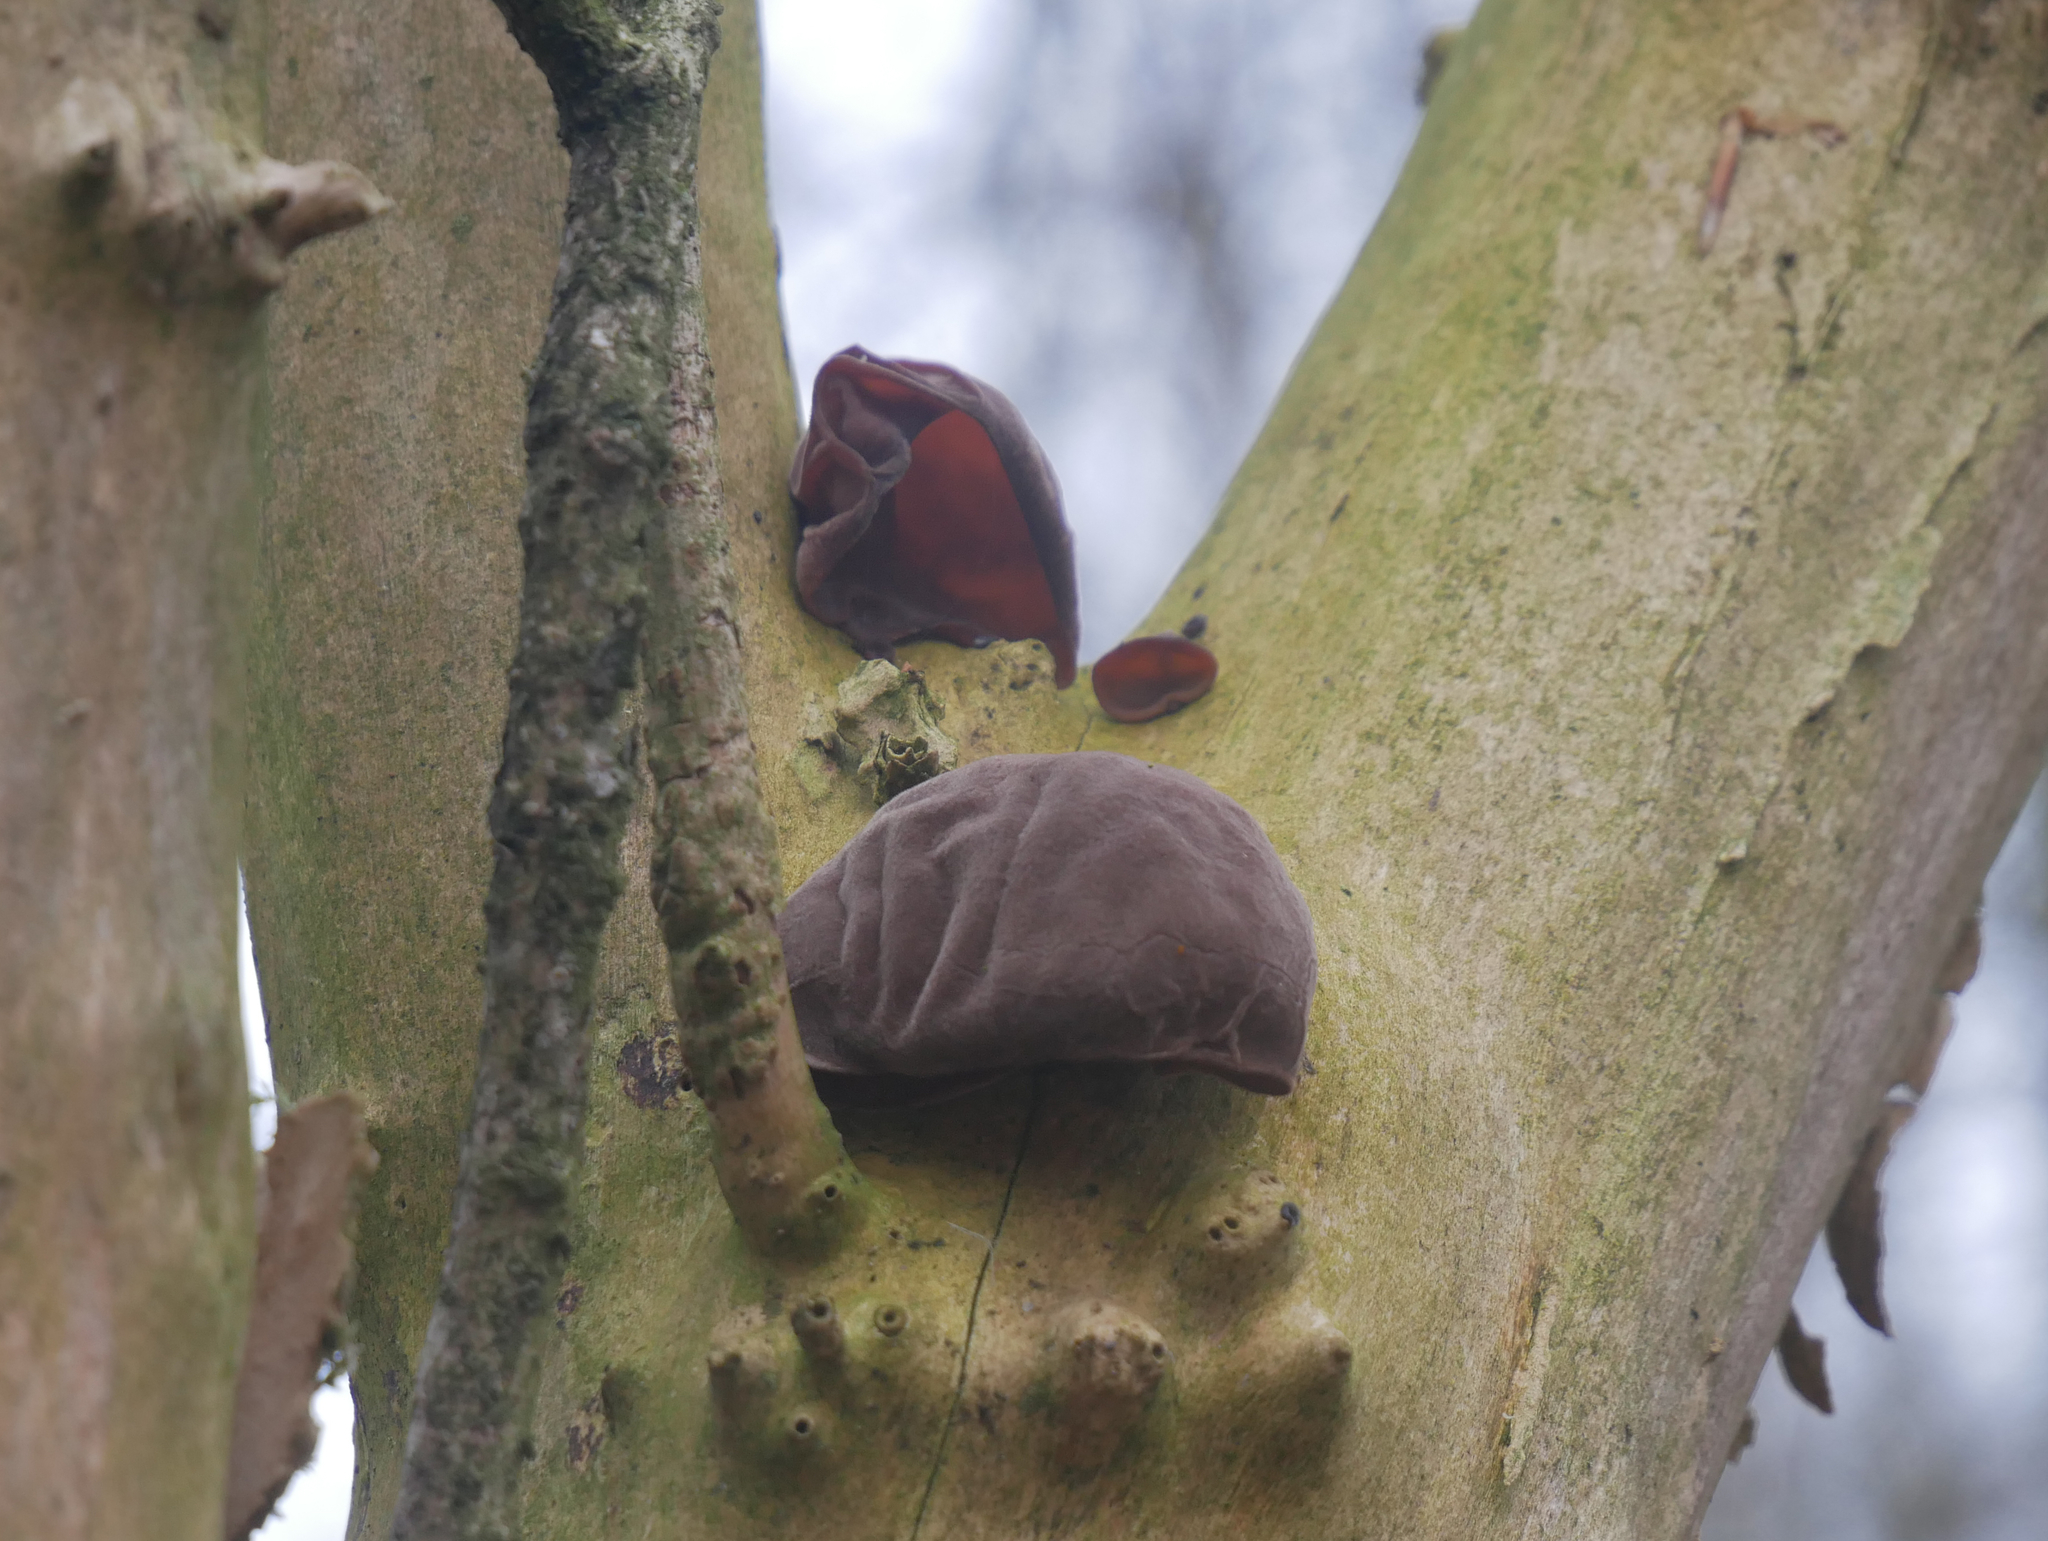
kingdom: Fungi
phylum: Basidiomycota
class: Agaricomycetes
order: Auriculariales
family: Auriculariaceae
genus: Auricularia
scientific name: Auricularia auricula-judae
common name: Jelly ear
